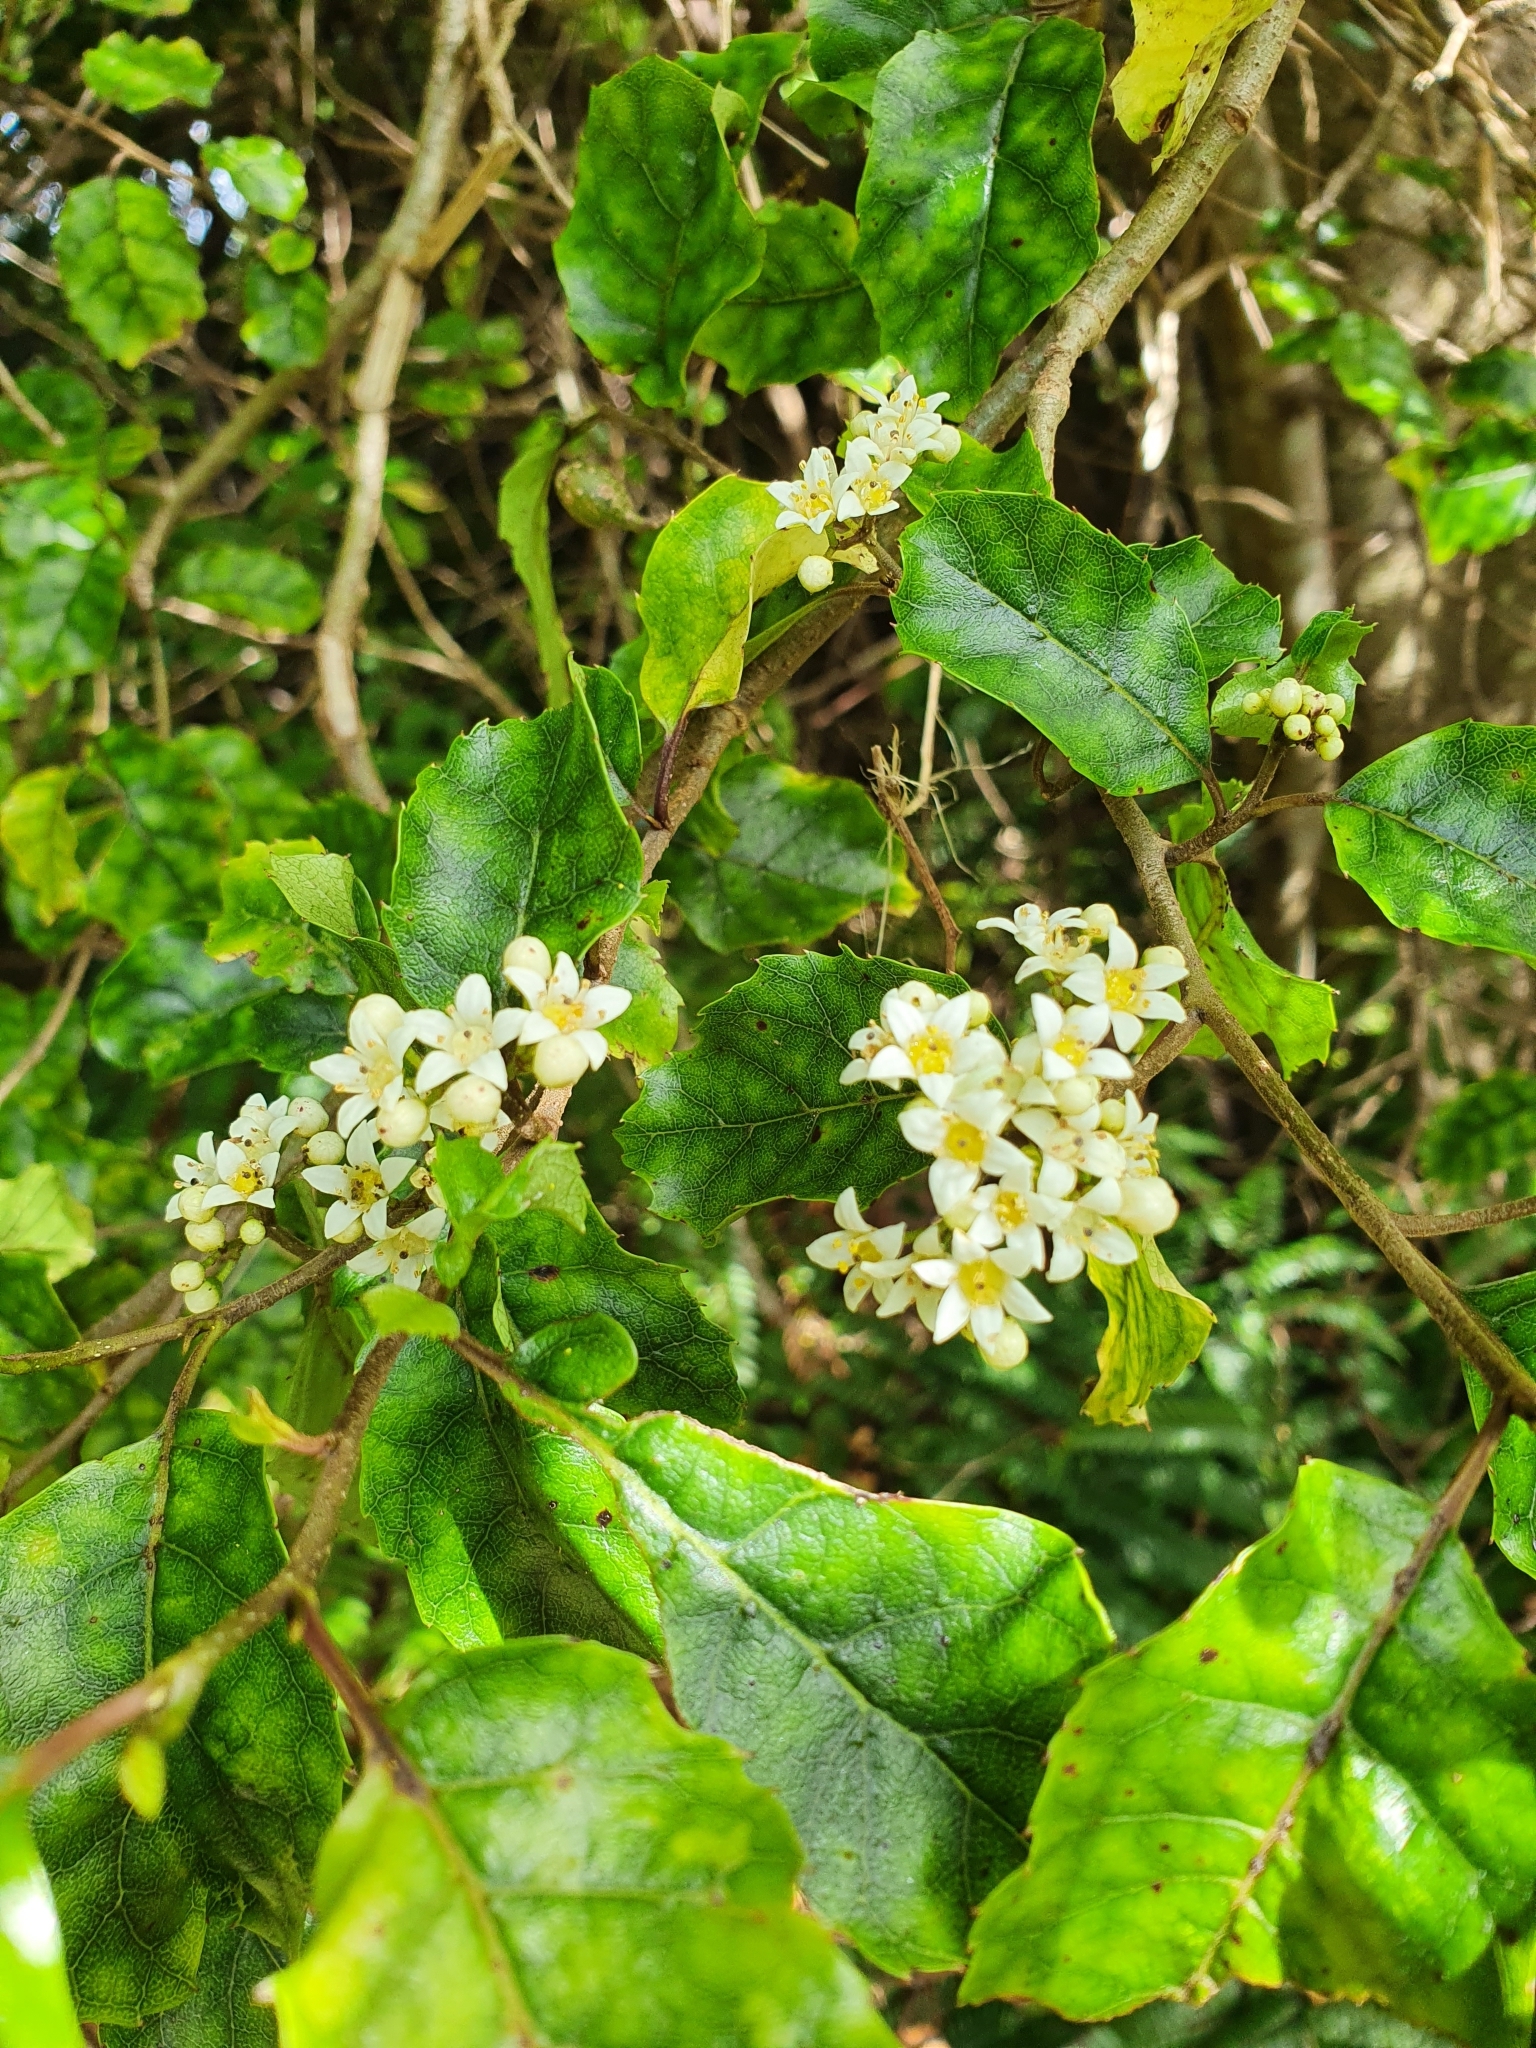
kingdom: Plantae
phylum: Tracheophyta
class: Magnoliopsida
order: Asterales
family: Rousseaceae
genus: Carpodetus
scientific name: Carpodetus serratus
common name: White mapau
